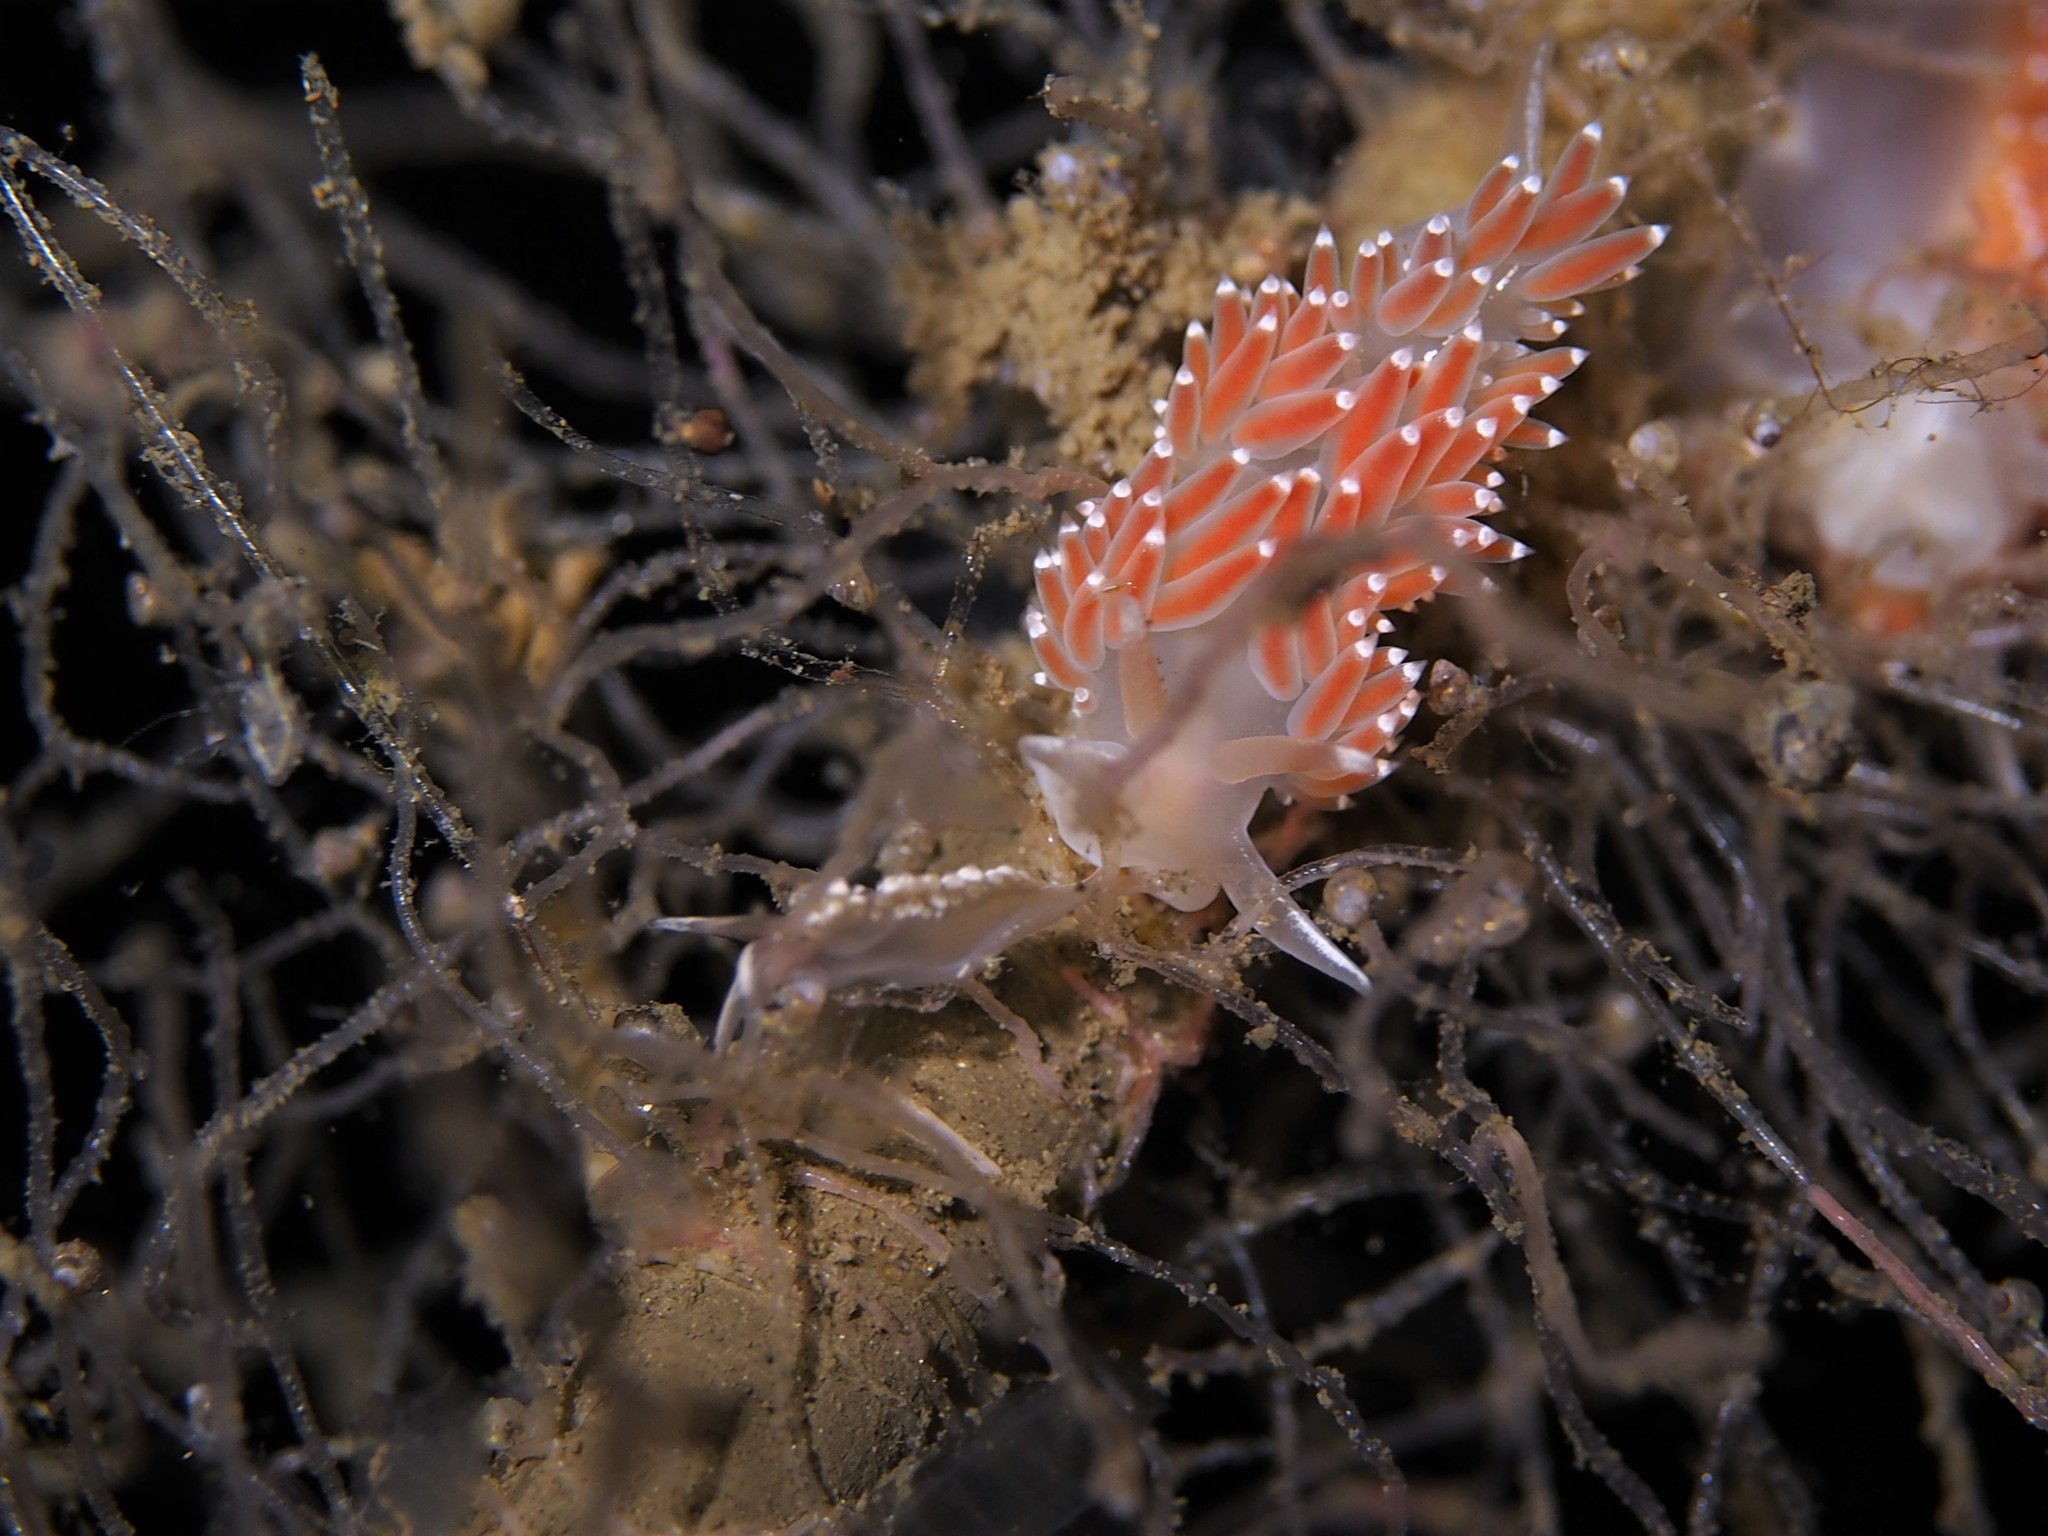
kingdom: Animalia
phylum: Mollusca
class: Gastropoda
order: Nudibranchia
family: Coryphellidae
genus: Coryphella
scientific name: Coryphella verrucosa
